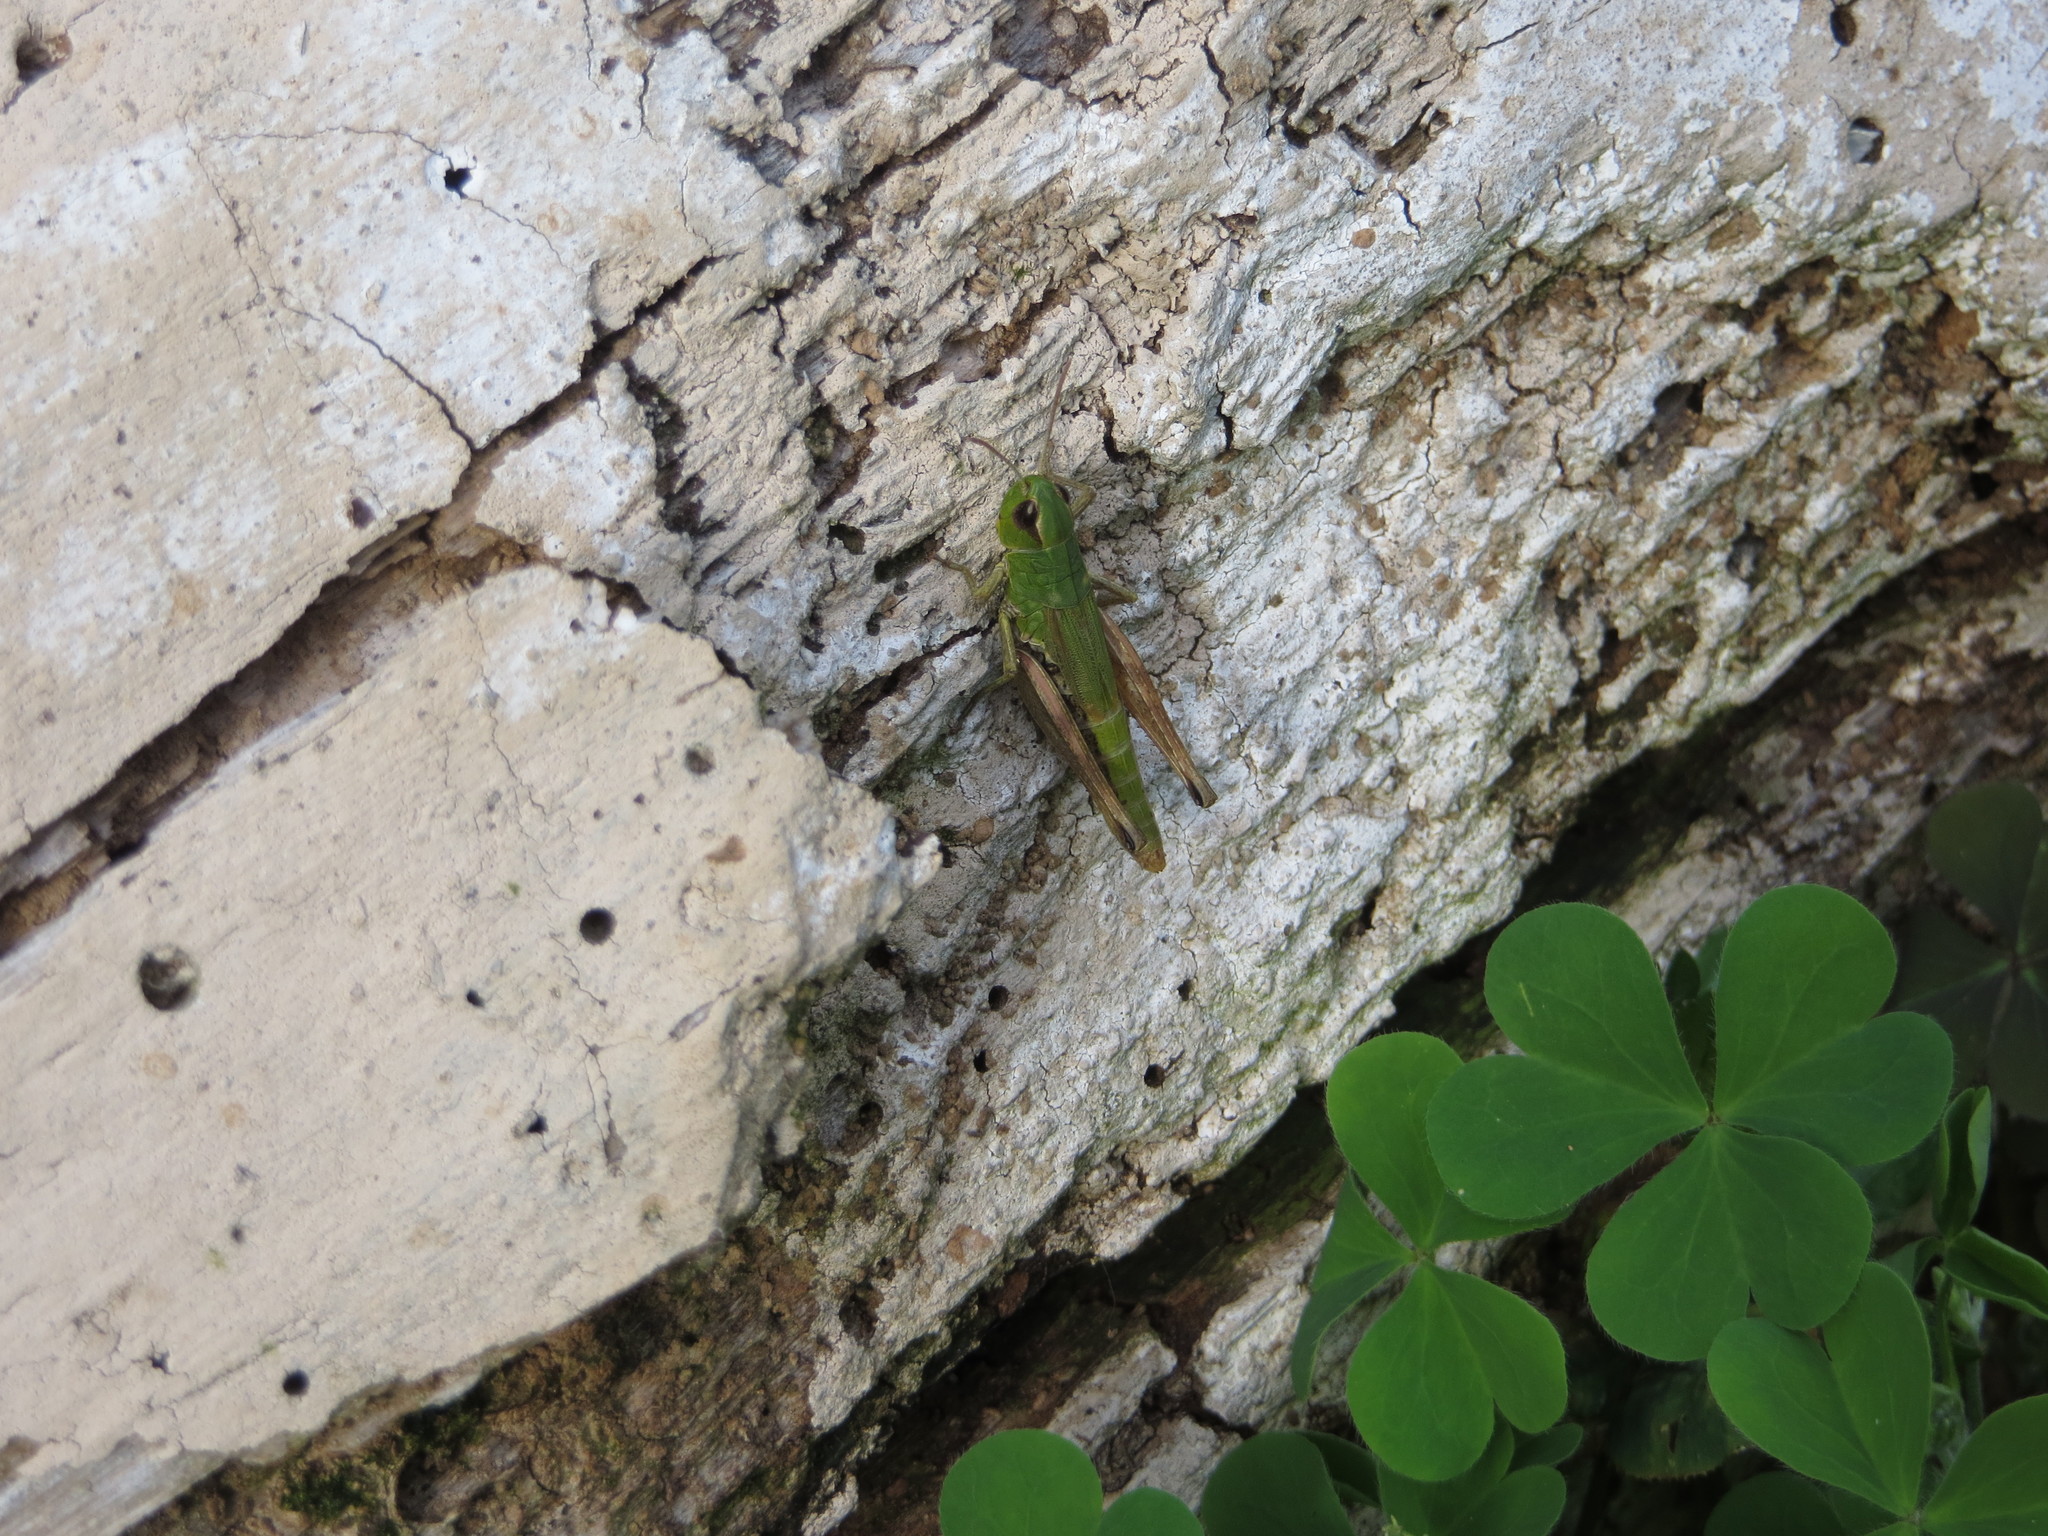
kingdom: Animalia
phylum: Arthropoda
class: Insecta
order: Orthoptera
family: Acrididae
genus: Pseudochorthippus
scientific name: Pseudochorthippus parallelus
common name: Meadow grasshopper
